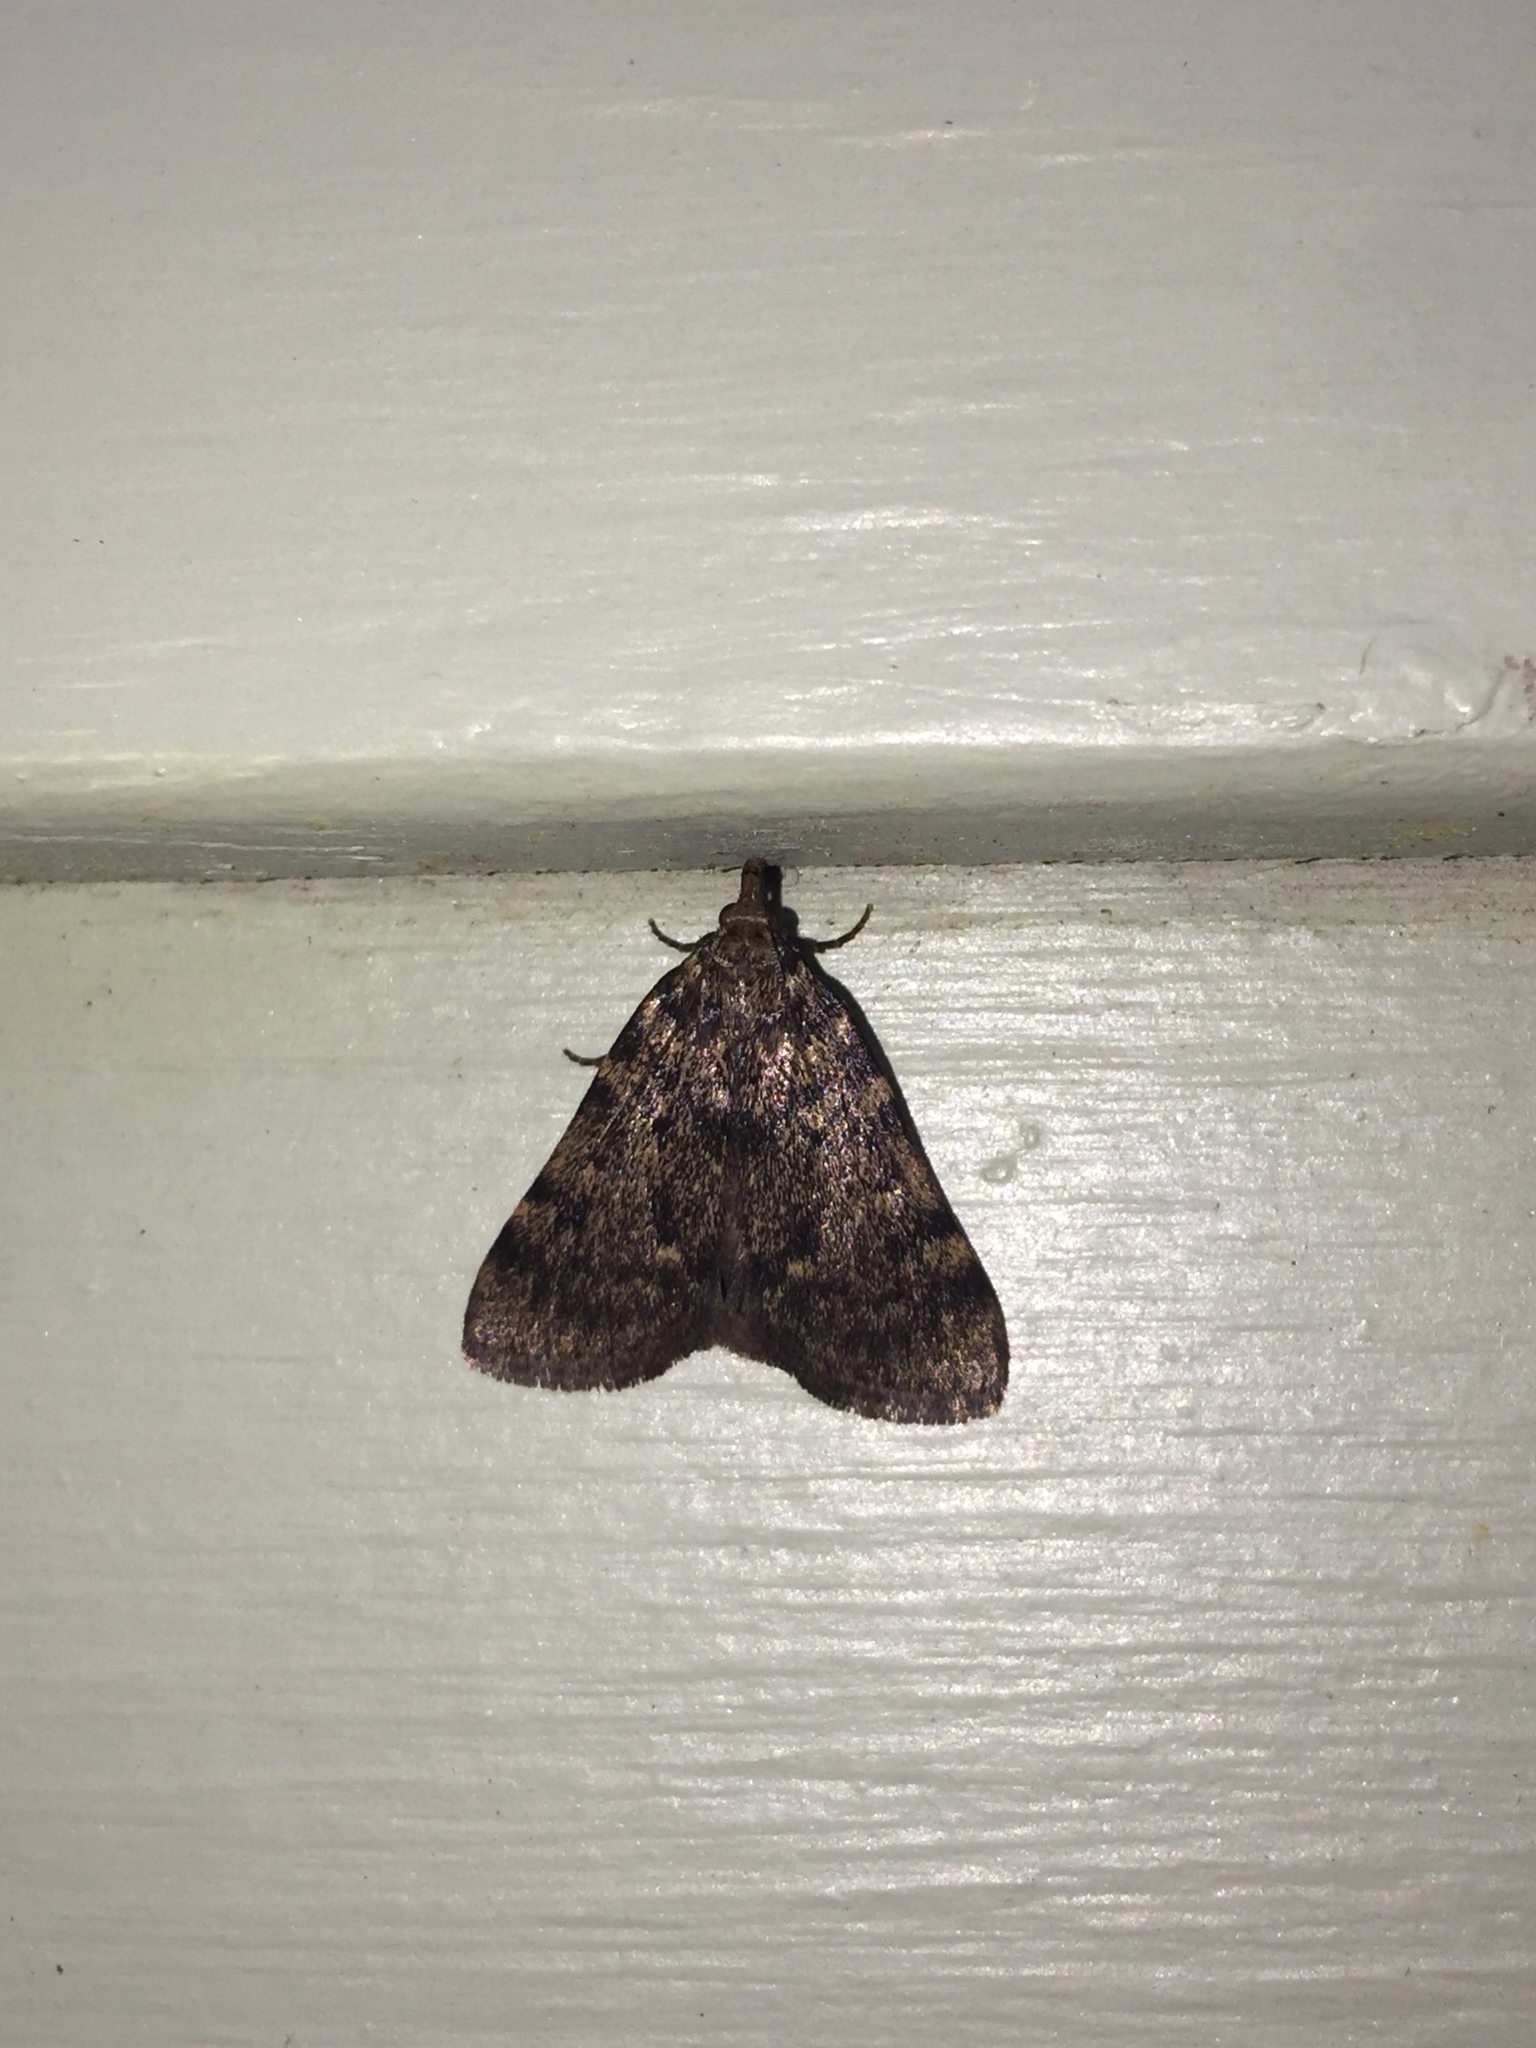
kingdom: Animalia
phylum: Arthropoda
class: Insecta
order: Lepidoptera
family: Pyralidae
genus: Aglossa
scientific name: Aglossa pinguinalis
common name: Large tabby
